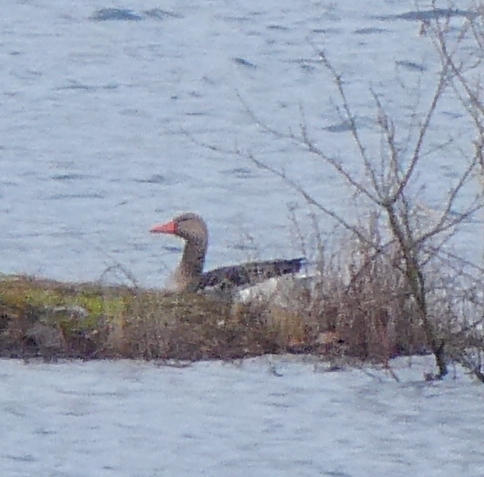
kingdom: Animalia
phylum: Chordata
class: Aves
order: Anseriformes
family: Anatidae
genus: Anser
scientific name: Anser anser
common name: Greylag goose
